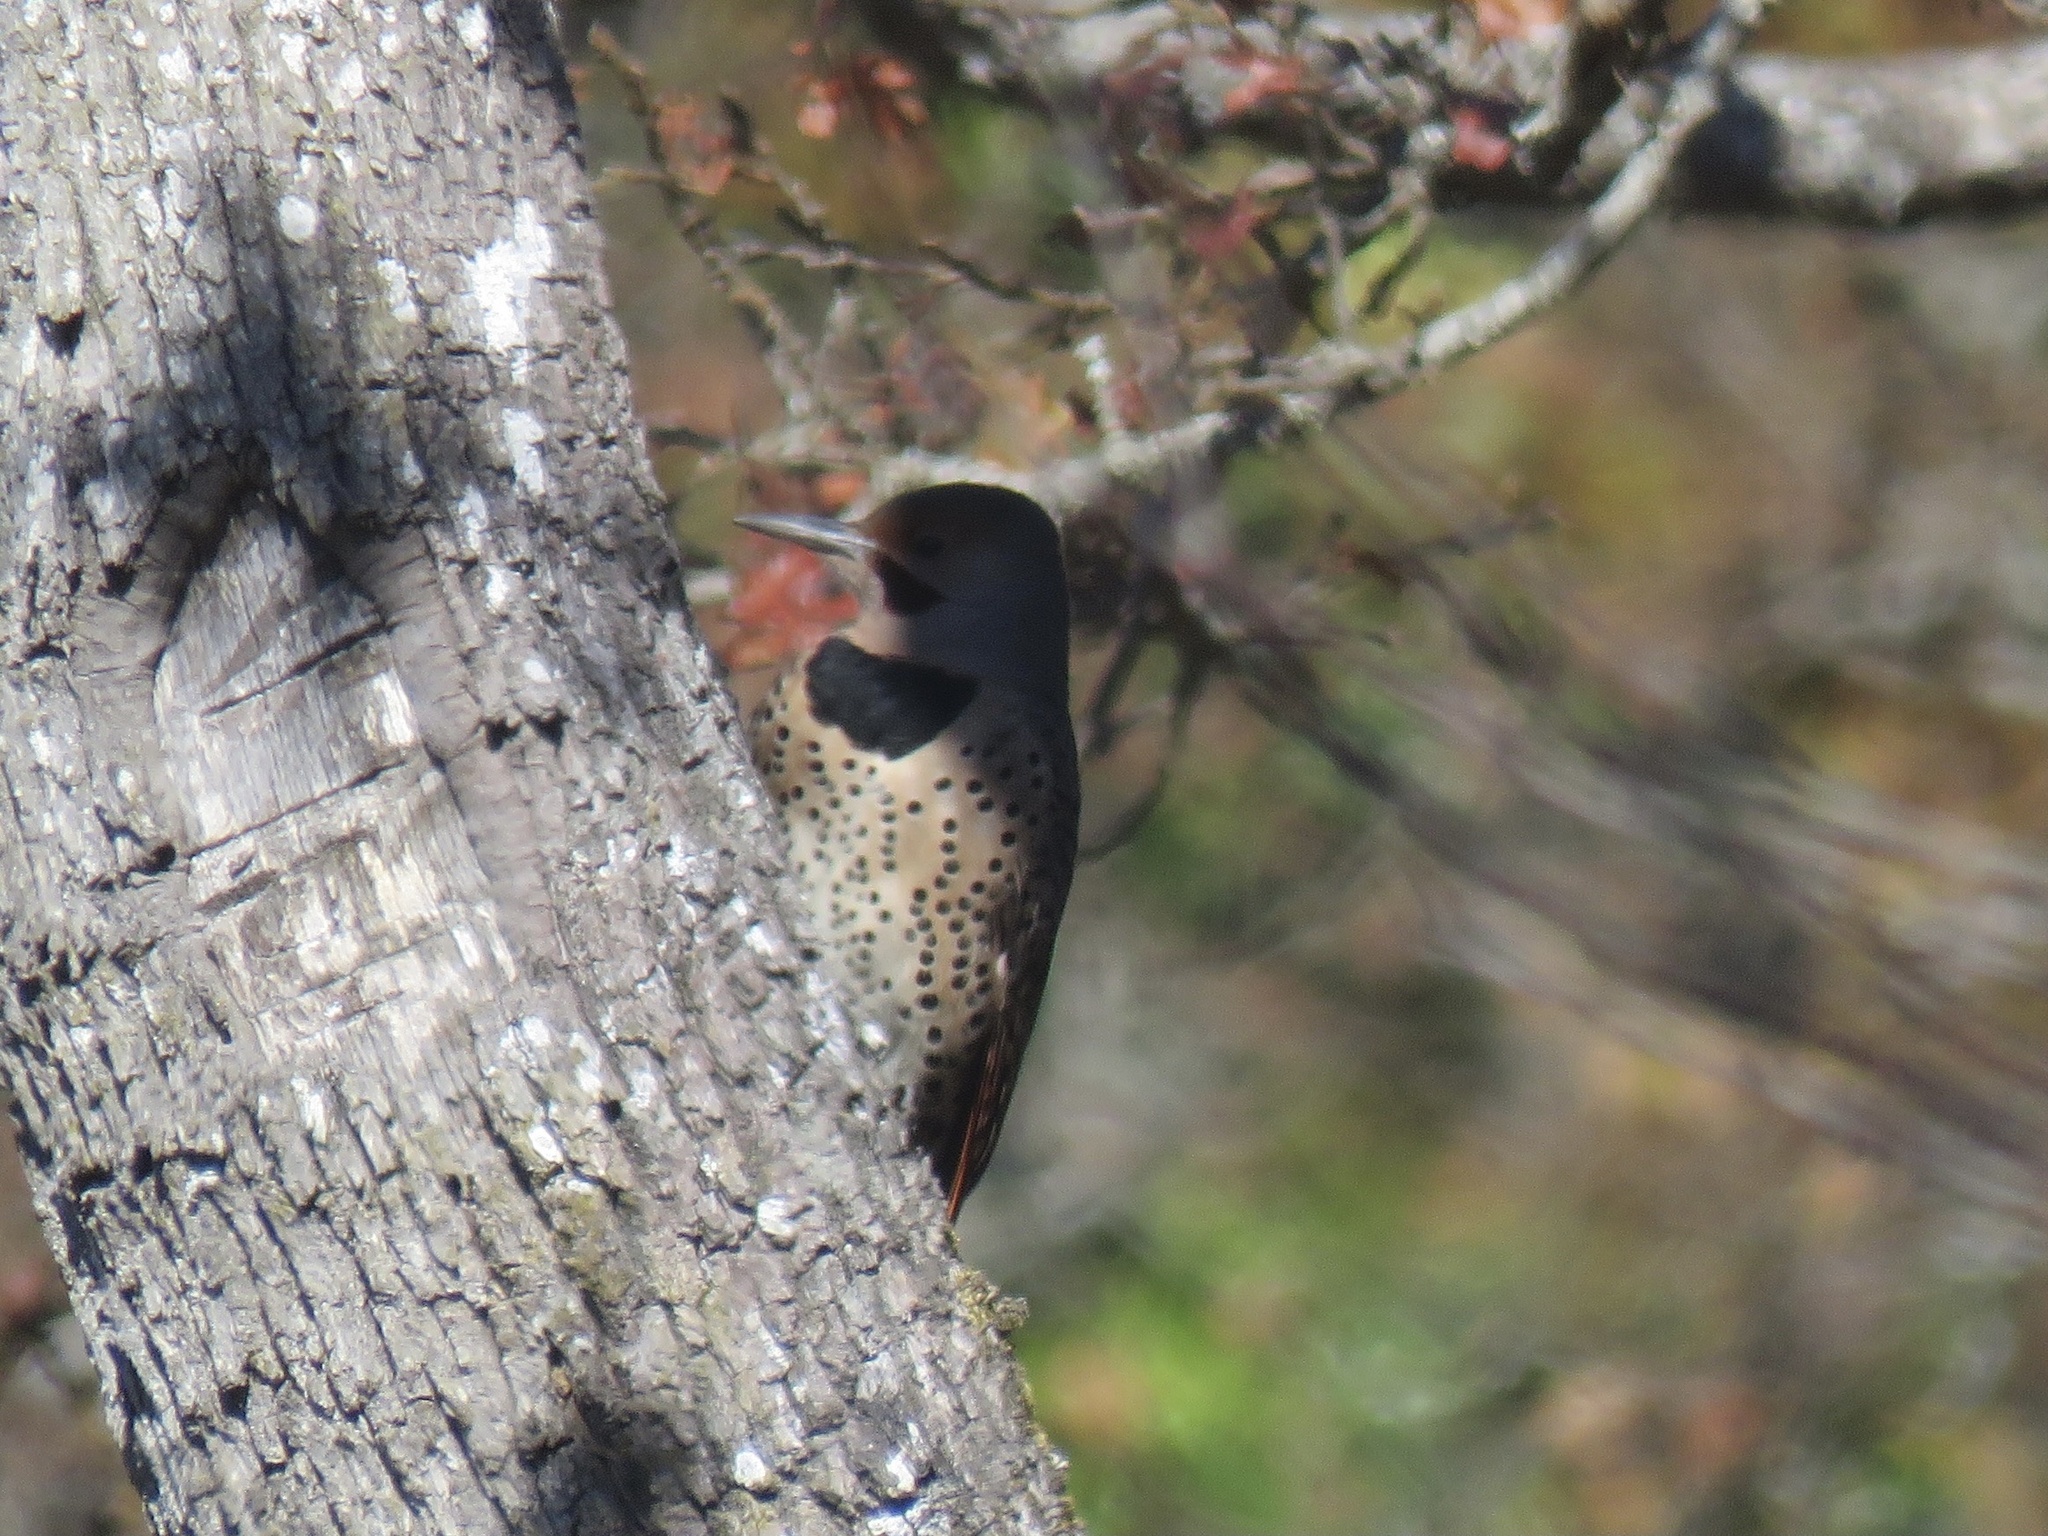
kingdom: Animalia
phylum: Chordata
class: Aves
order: Piciformes
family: Picidae
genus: Colaptes
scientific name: Colaptes auratus
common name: Northern flicker
